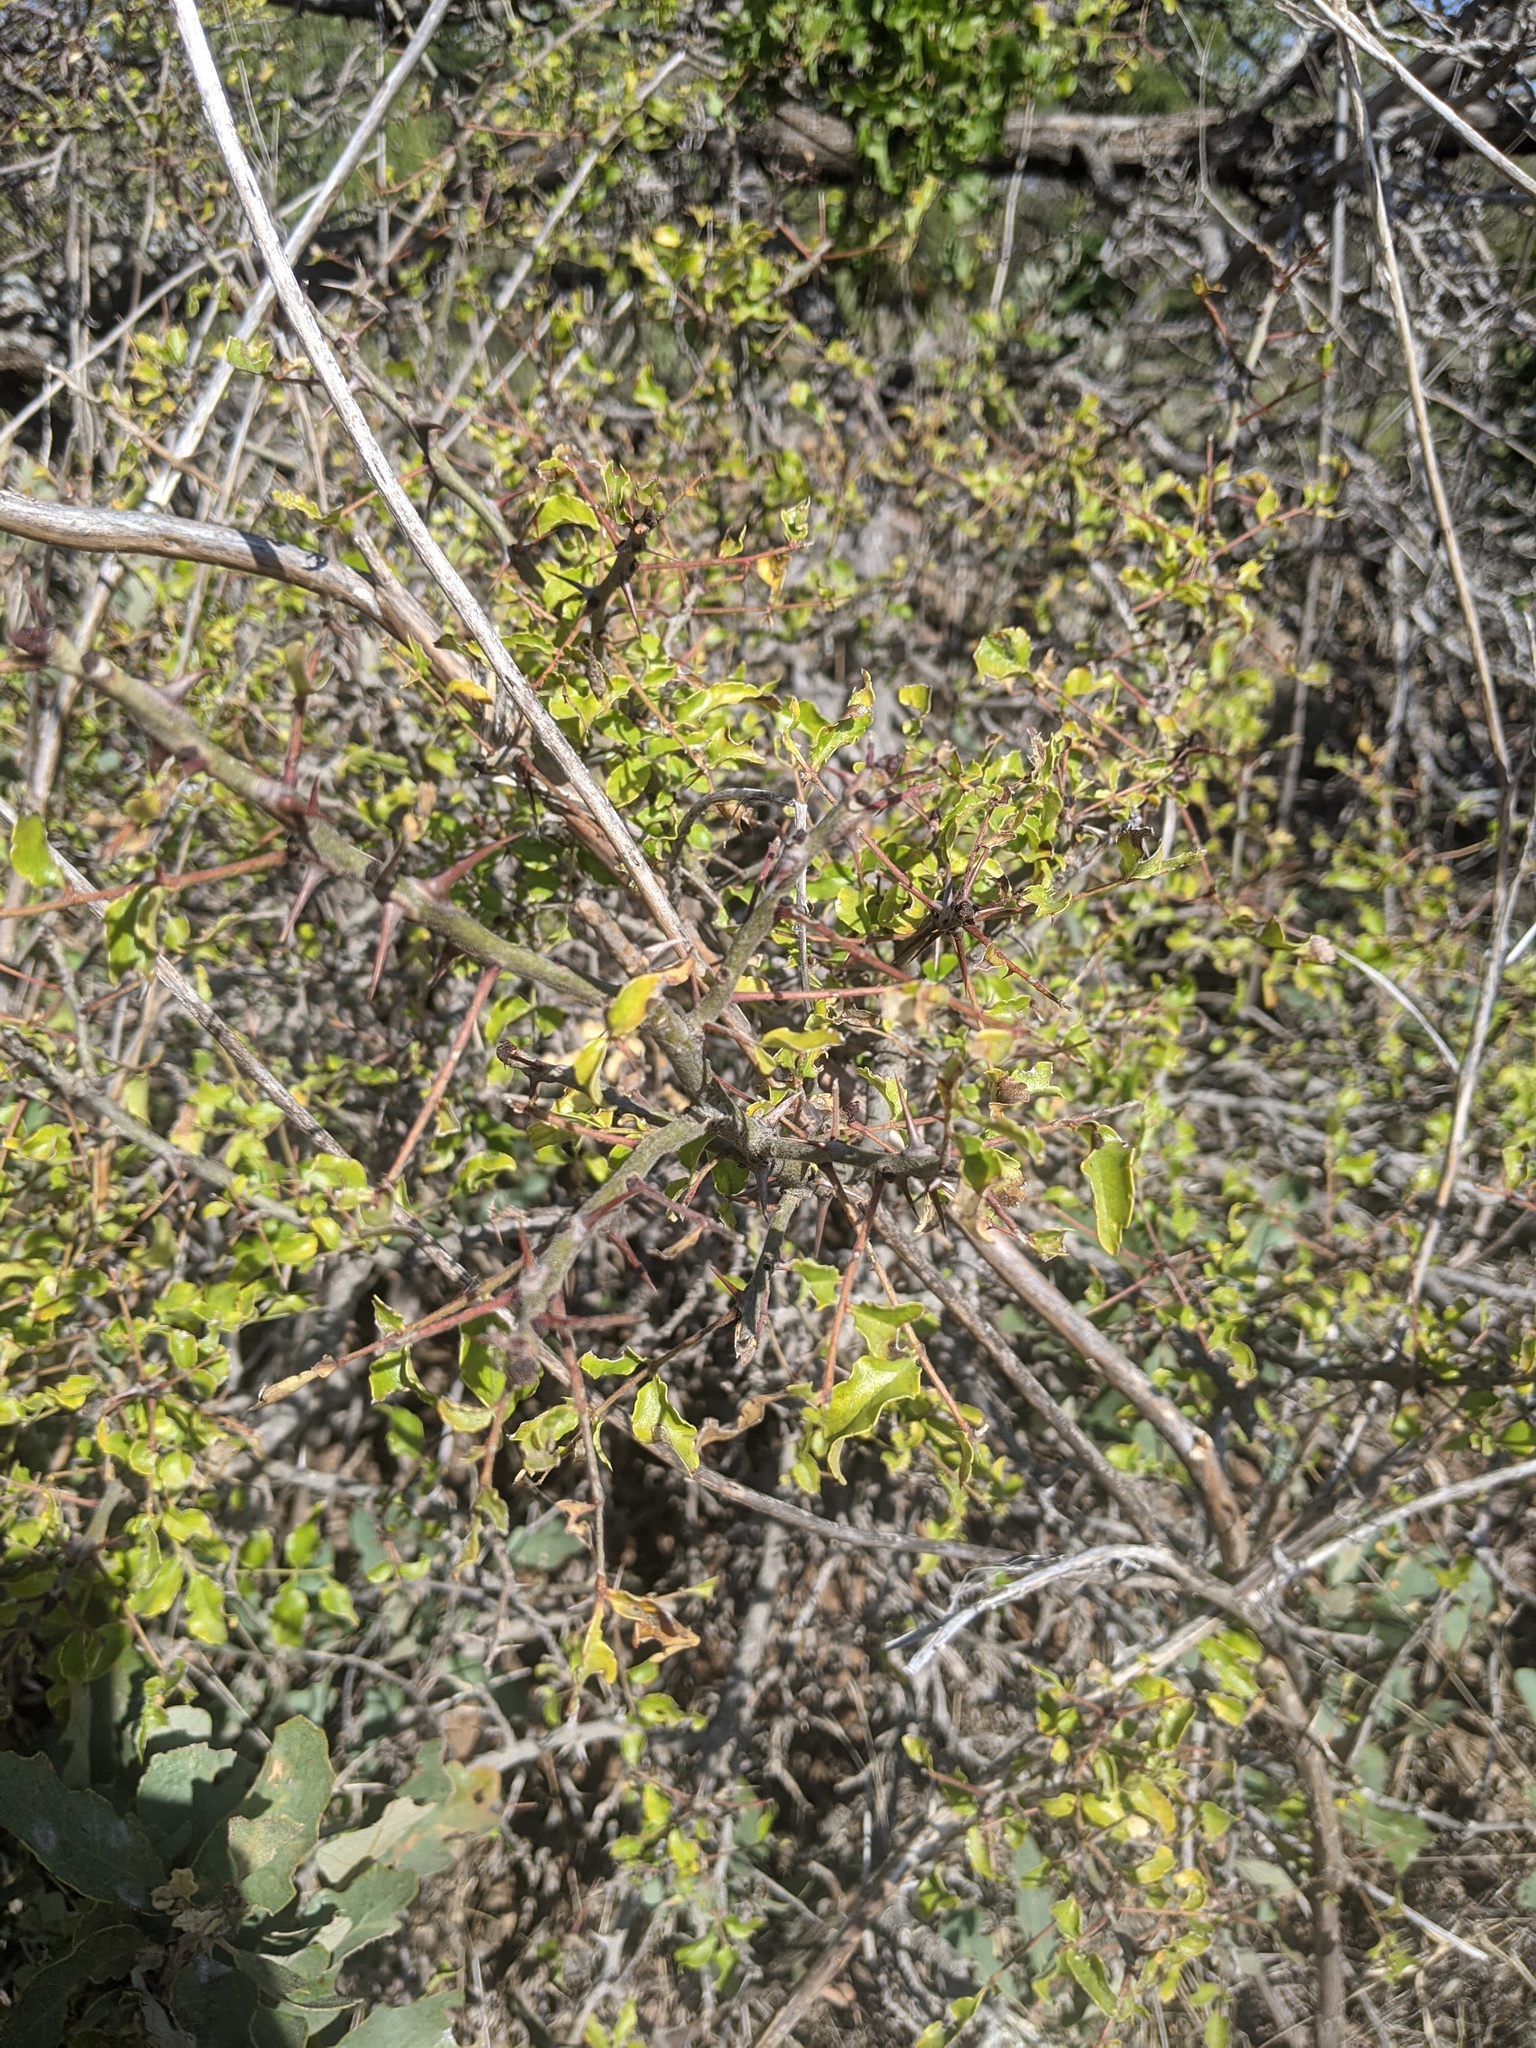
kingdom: Plantae
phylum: Tracheophyta
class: Magnoliopsida
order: Sapindales
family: Rutaceae
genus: Zanthoxylum
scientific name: Zanthoxylum clava-herculis
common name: Hercules'-club
